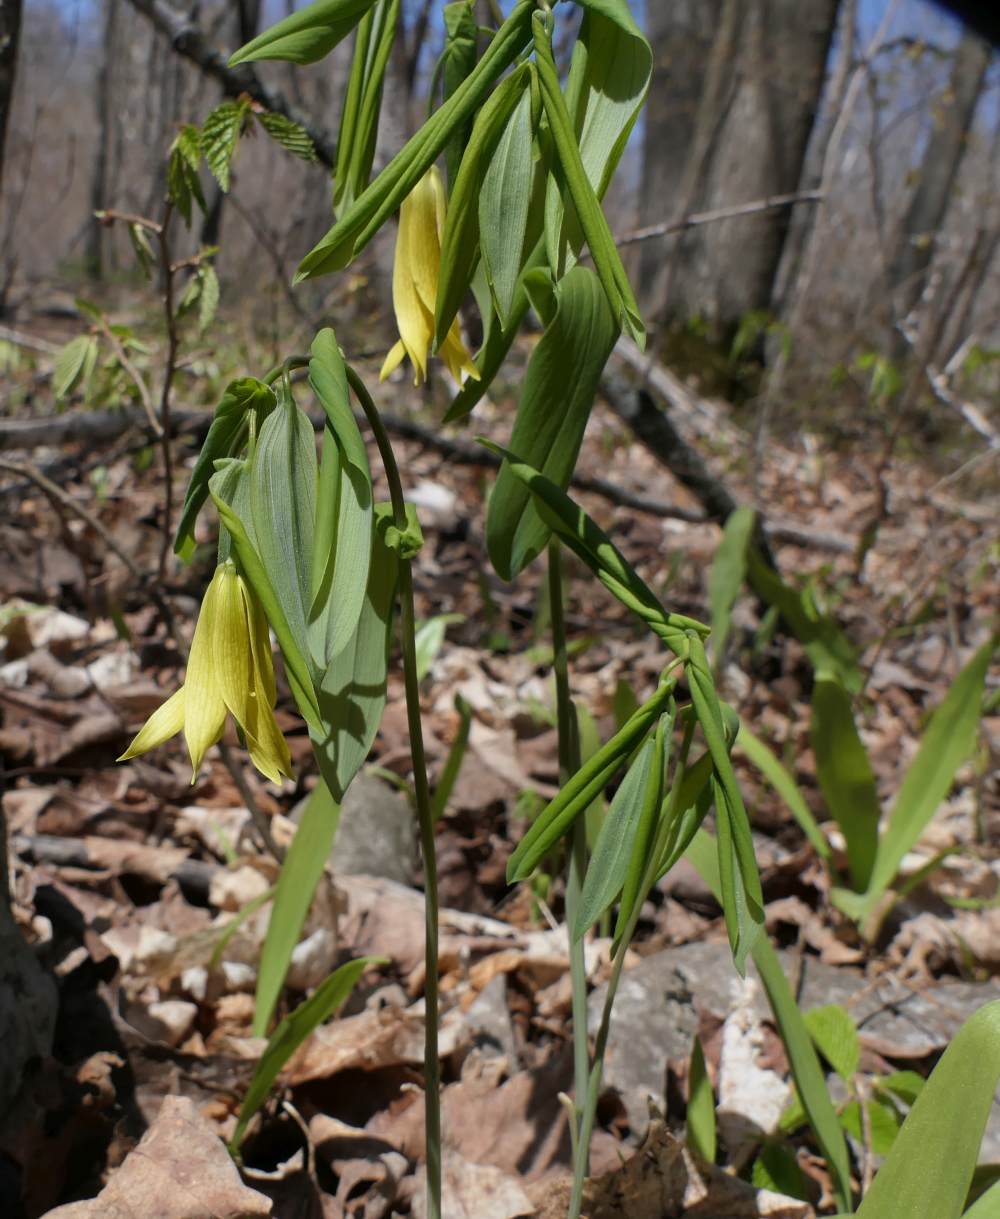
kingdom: Plantae
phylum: Tracheophyta
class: Liliopsida
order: Liliales
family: Colchicaceae
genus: Uvularia
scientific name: Uvularia grandiflora
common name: Bellwort
